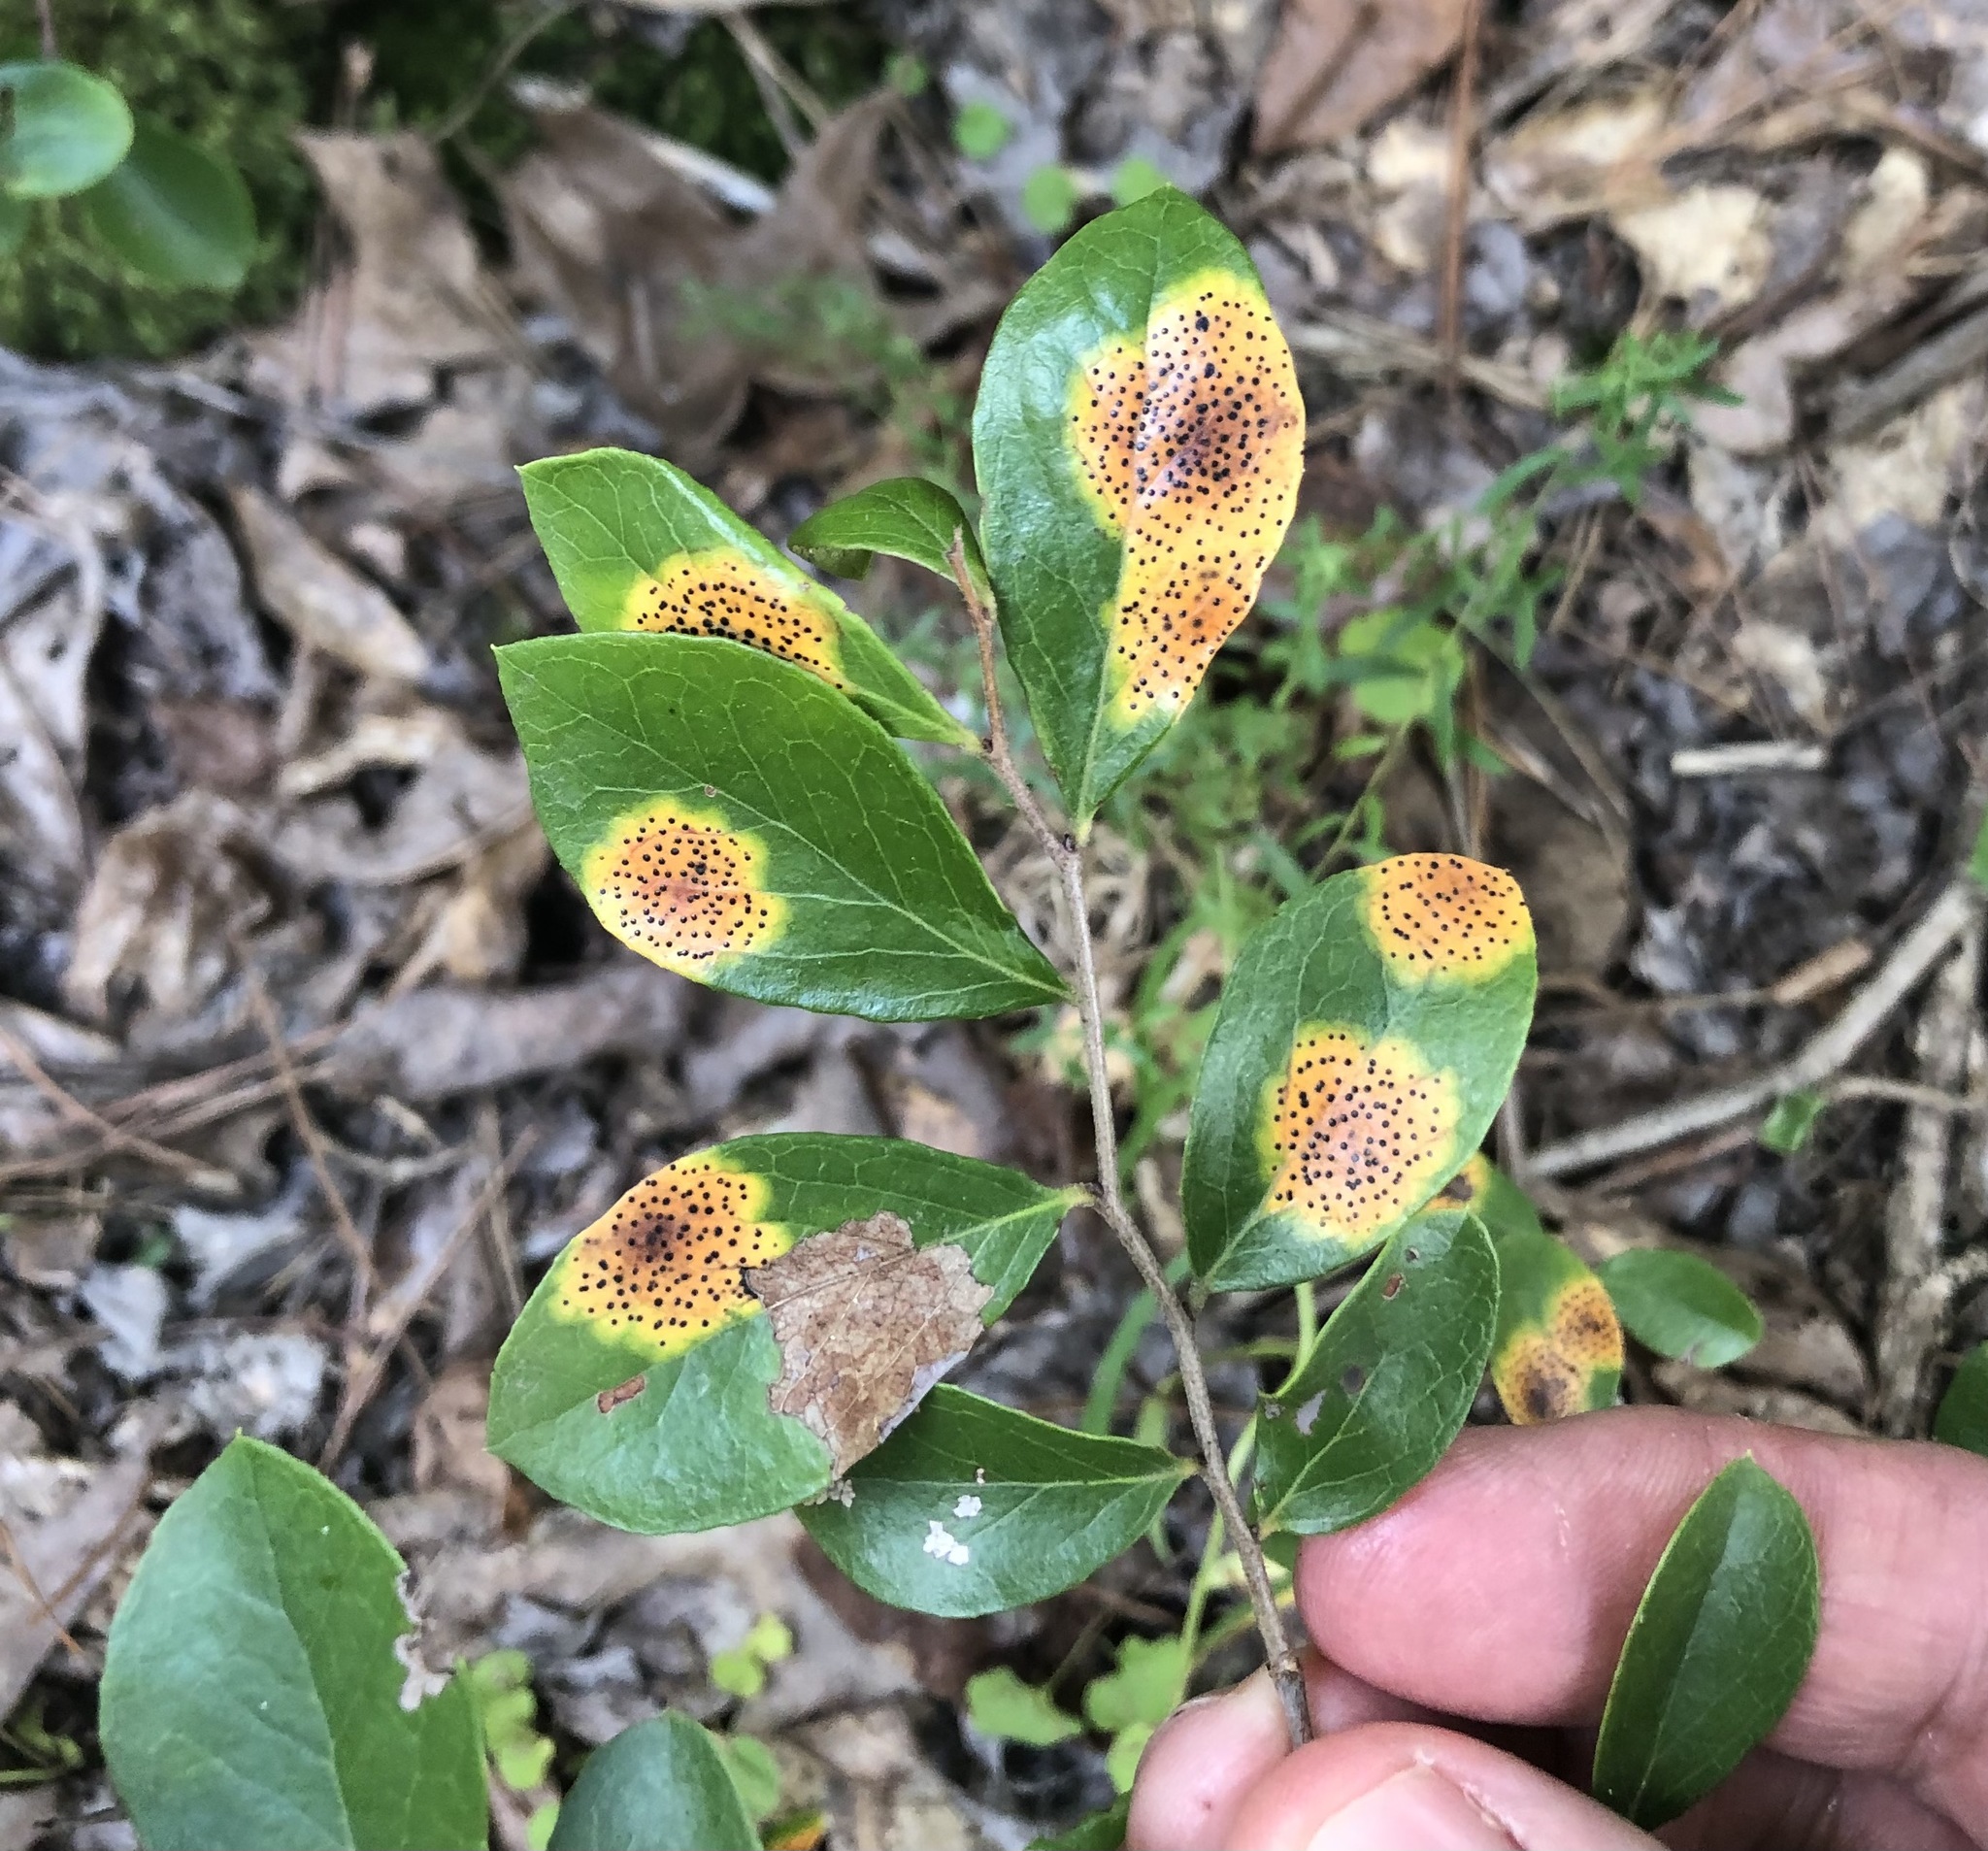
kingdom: Fungi
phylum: Ascomycota
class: Sordariomycetes
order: Phyllachorales
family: Phyllachoraceae
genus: Ophiodothella
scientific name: Ophiodothella angustissima
